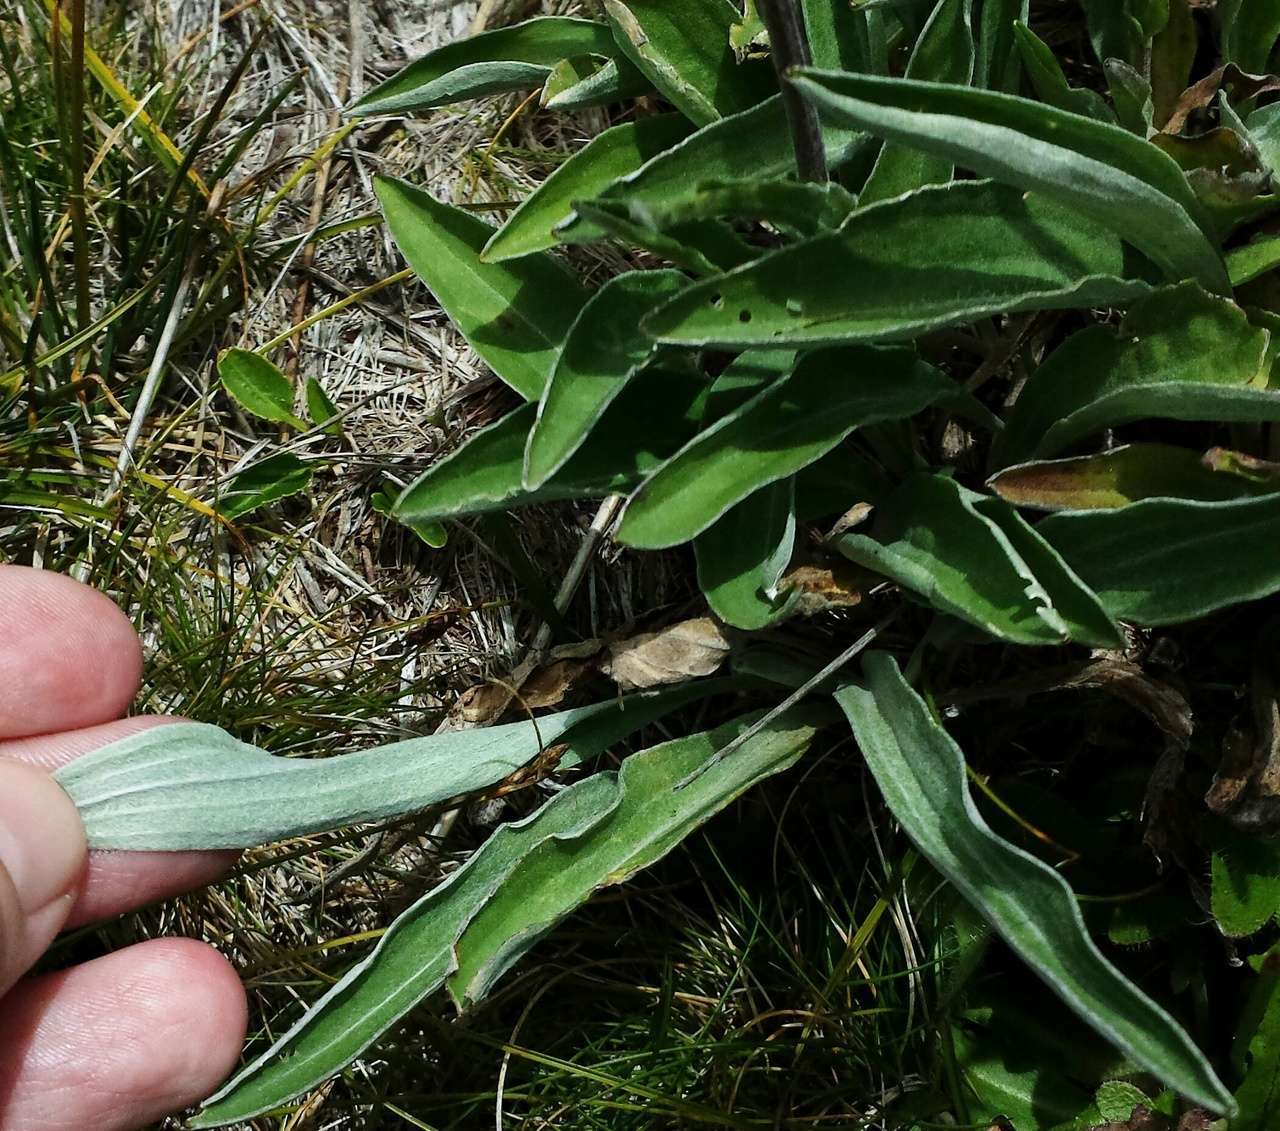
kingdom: Plantae
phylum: Tracheophyta
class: Magnoliopsida
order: Asterales
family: Asteraceae
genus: Craspedia
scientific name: Craspedia adenophora
